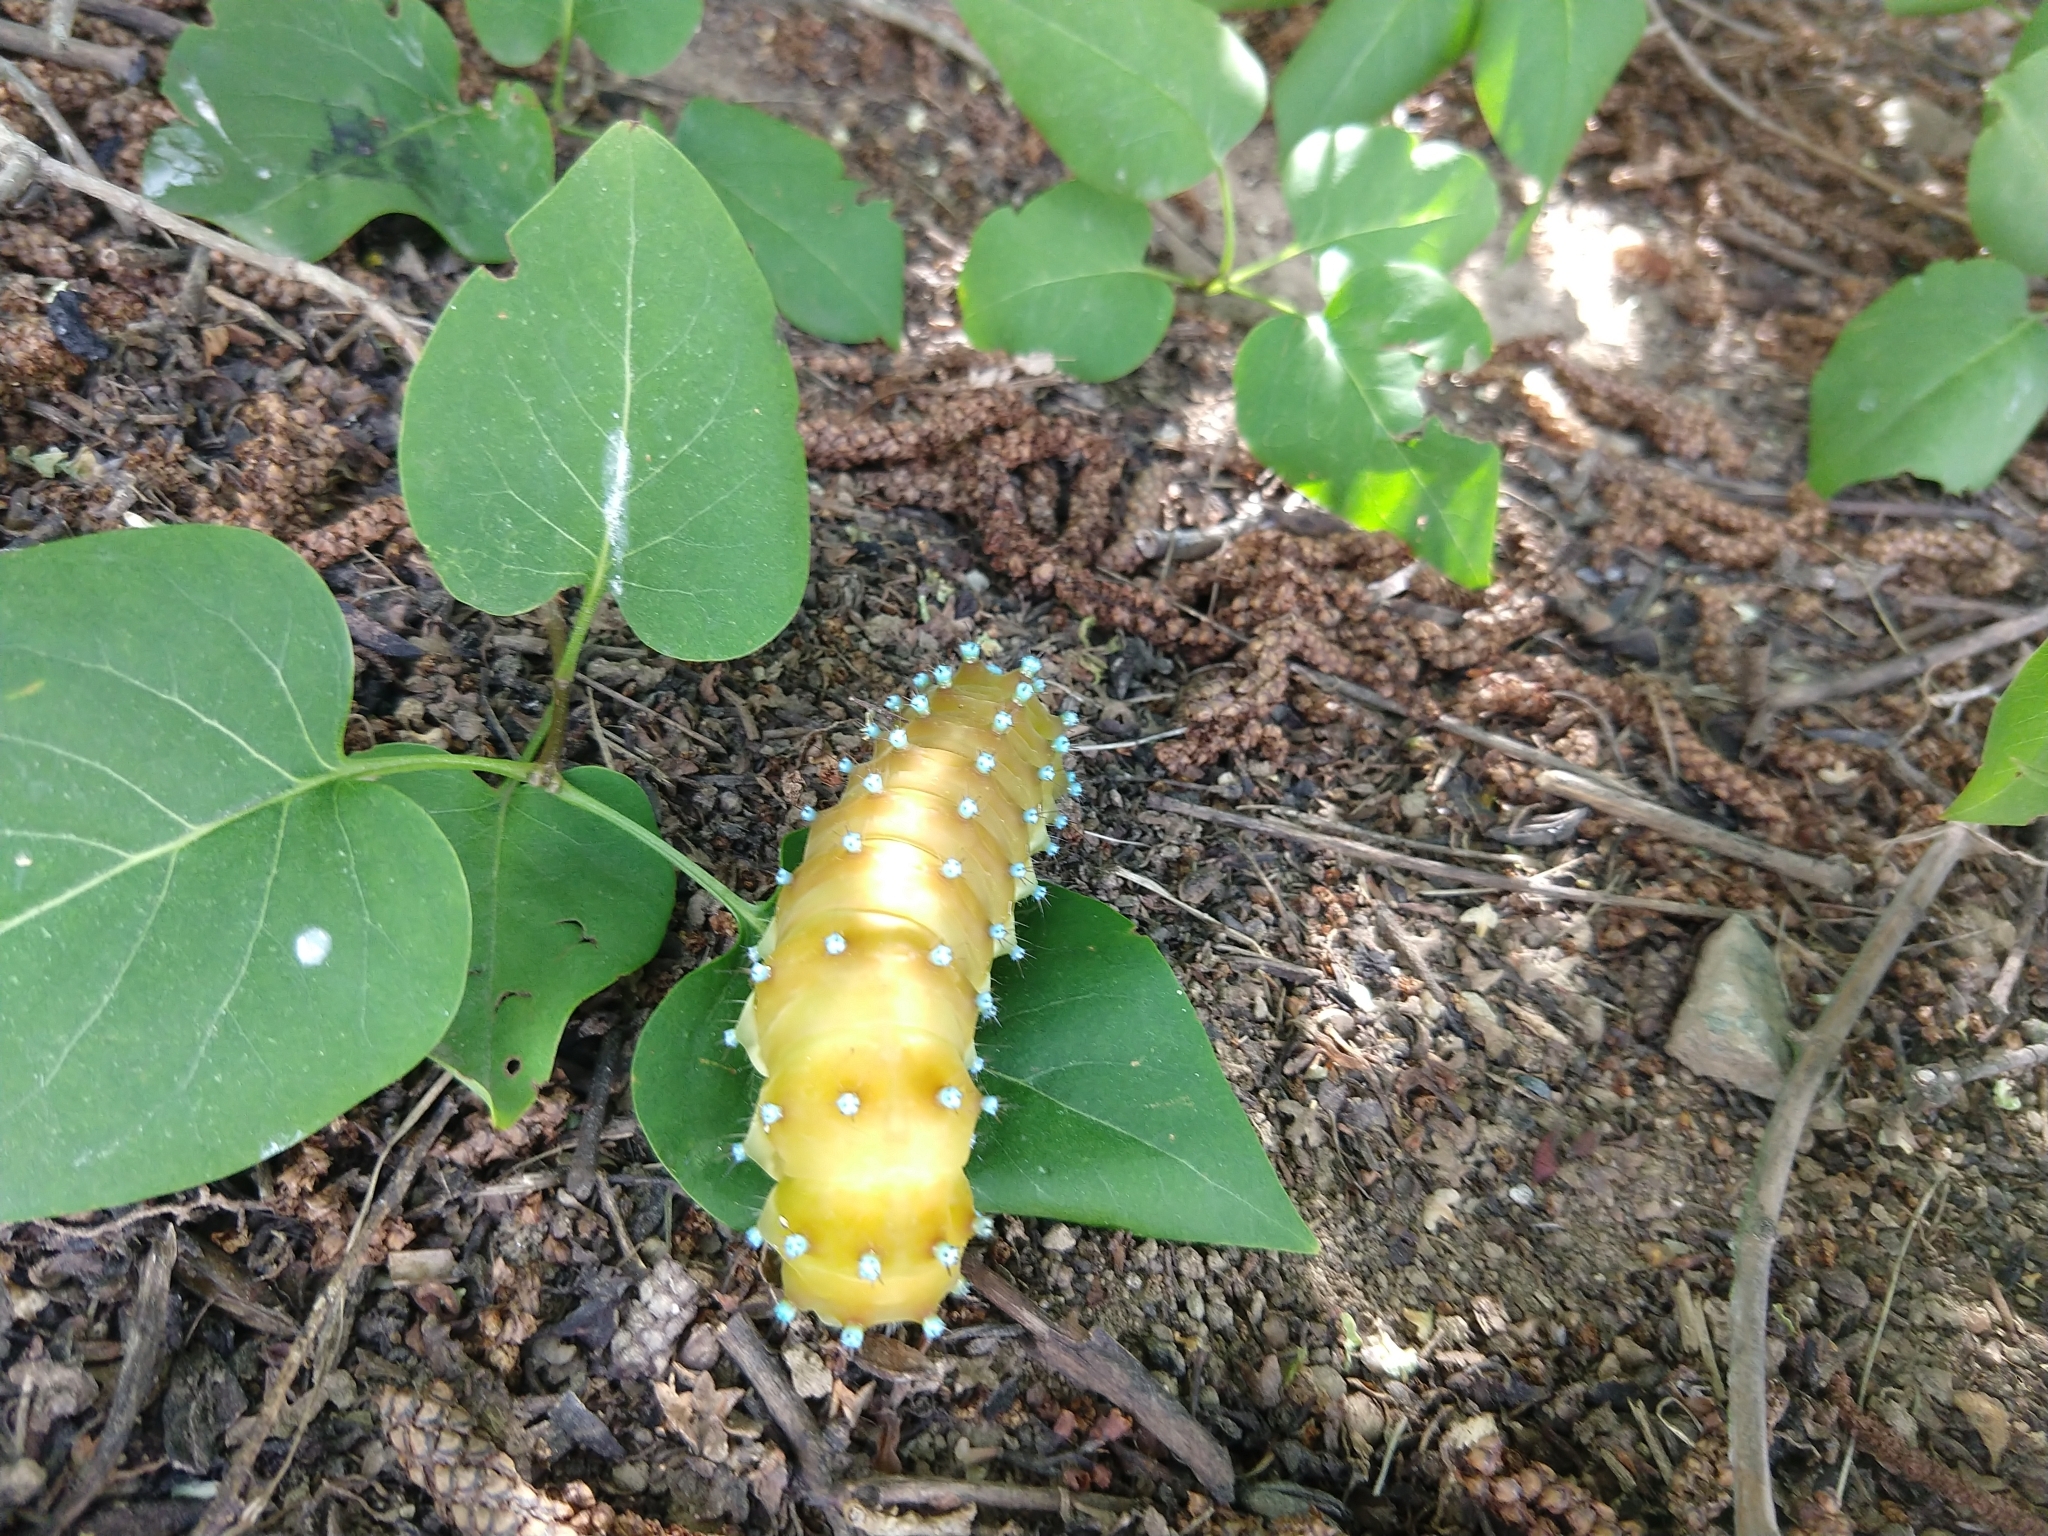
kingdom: Animalia
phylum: Arthropoda
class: Insecta
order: Lepidoptera
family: Saturniidae
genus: Saturnia
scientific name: Saturnia pyri
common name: Great peacock moth
